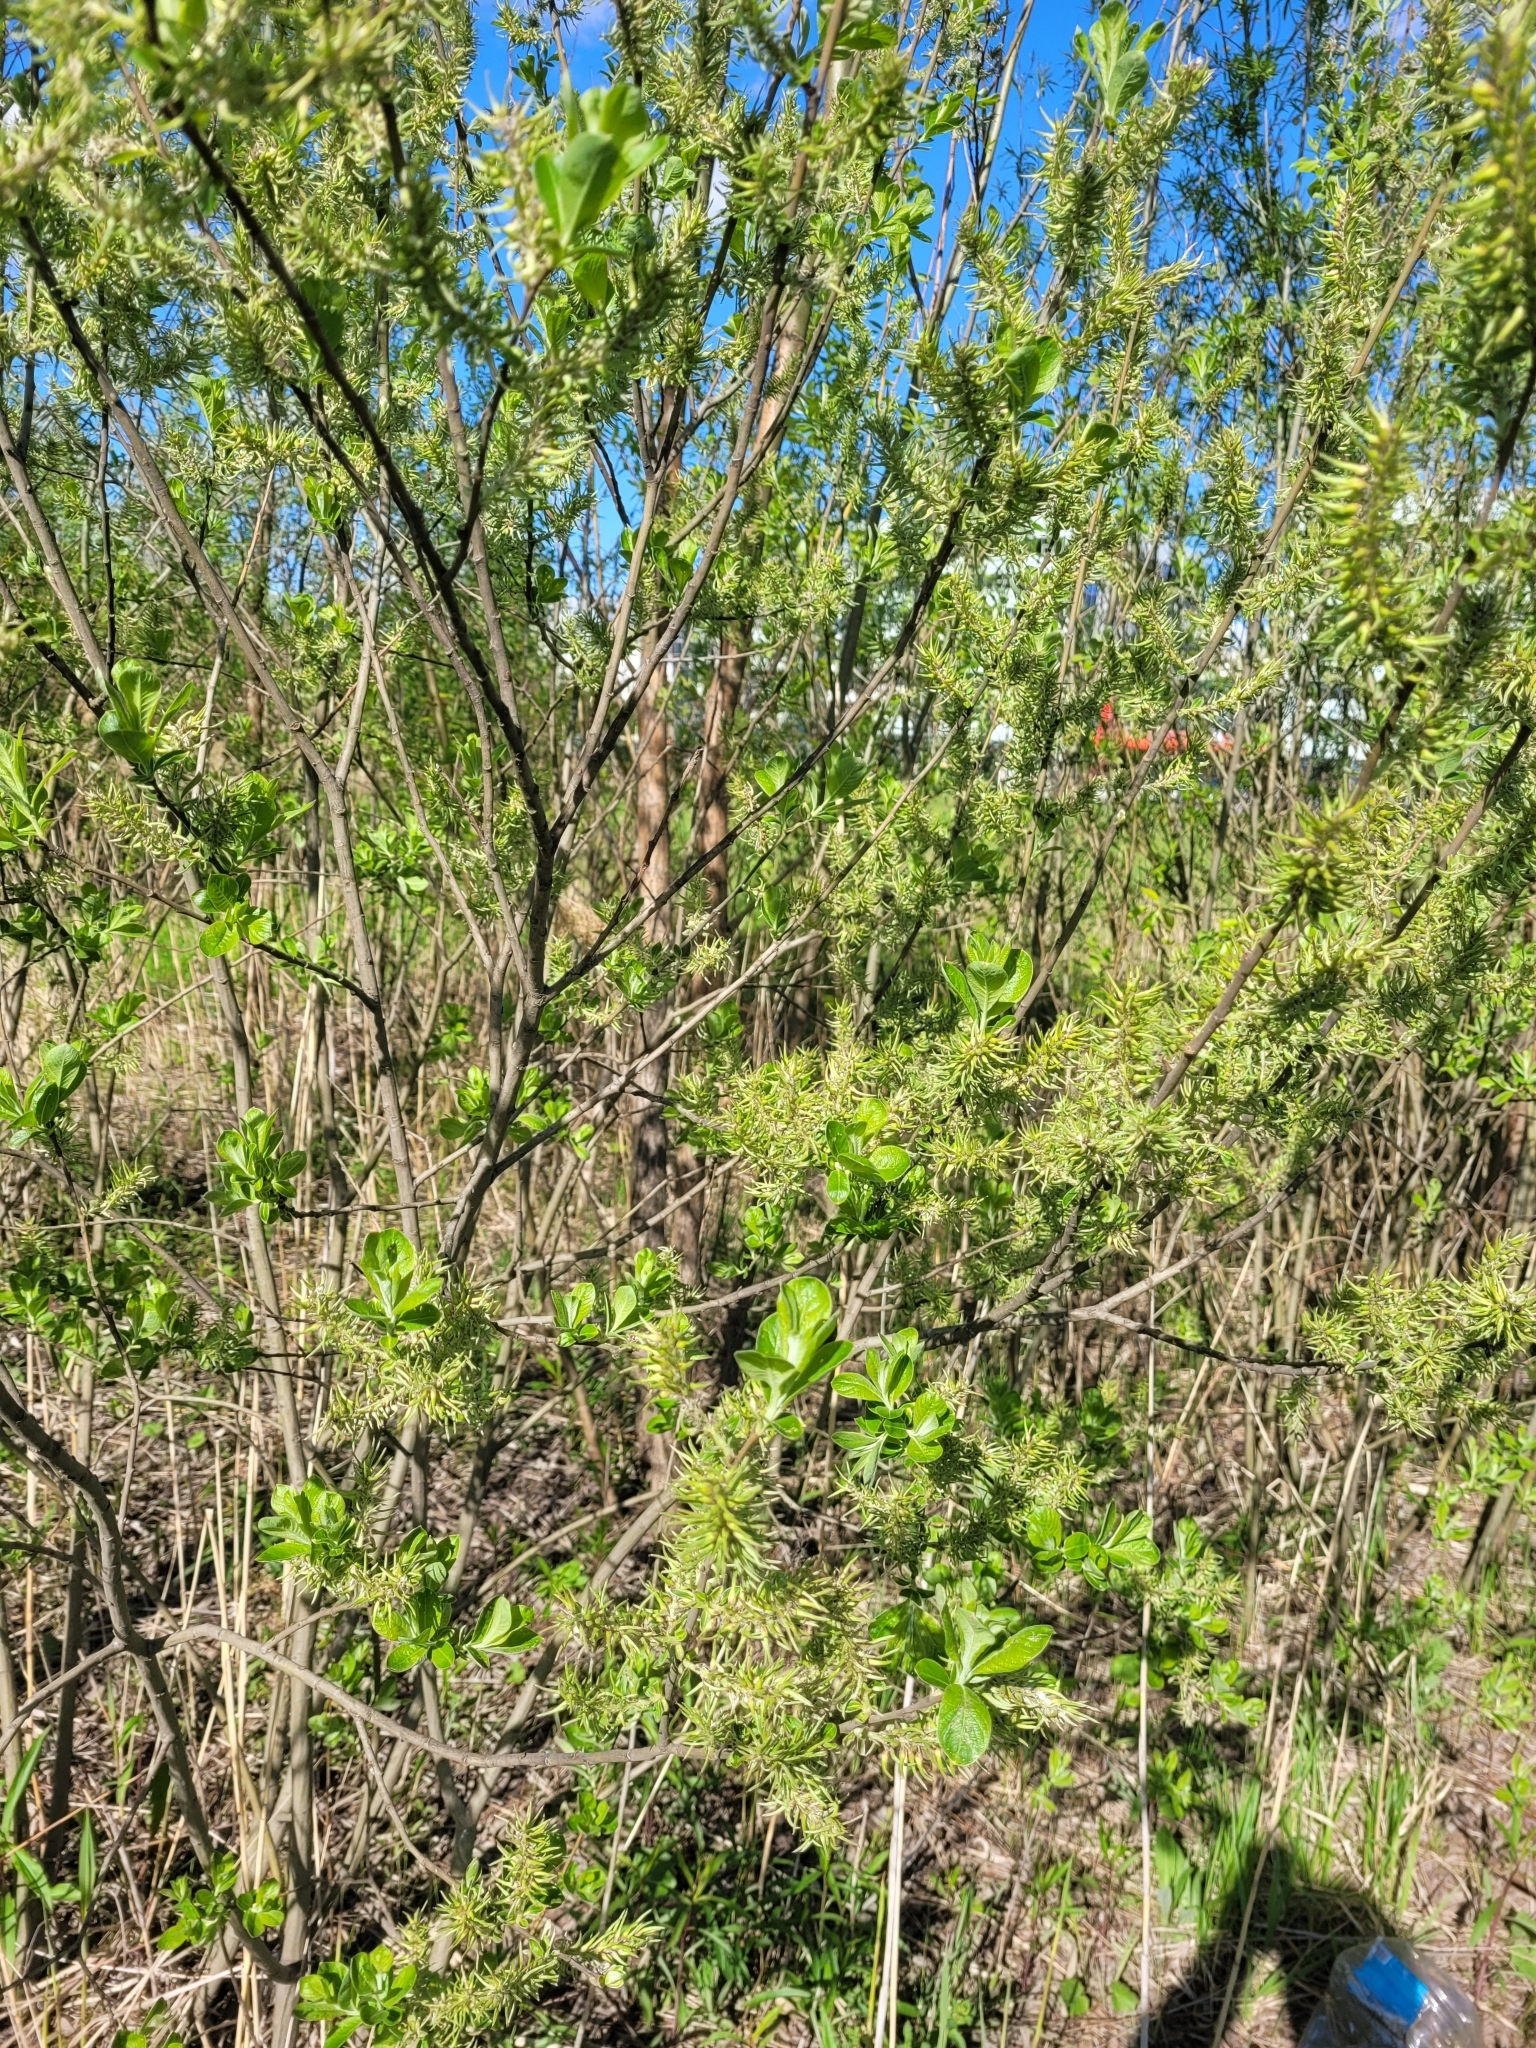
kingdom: Plantae
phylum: Tracheophyta
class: Magnoliopsida
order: Malpighiales
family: Salicaceae
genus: Salix
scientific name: Salix cinerea
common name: Common sallow
